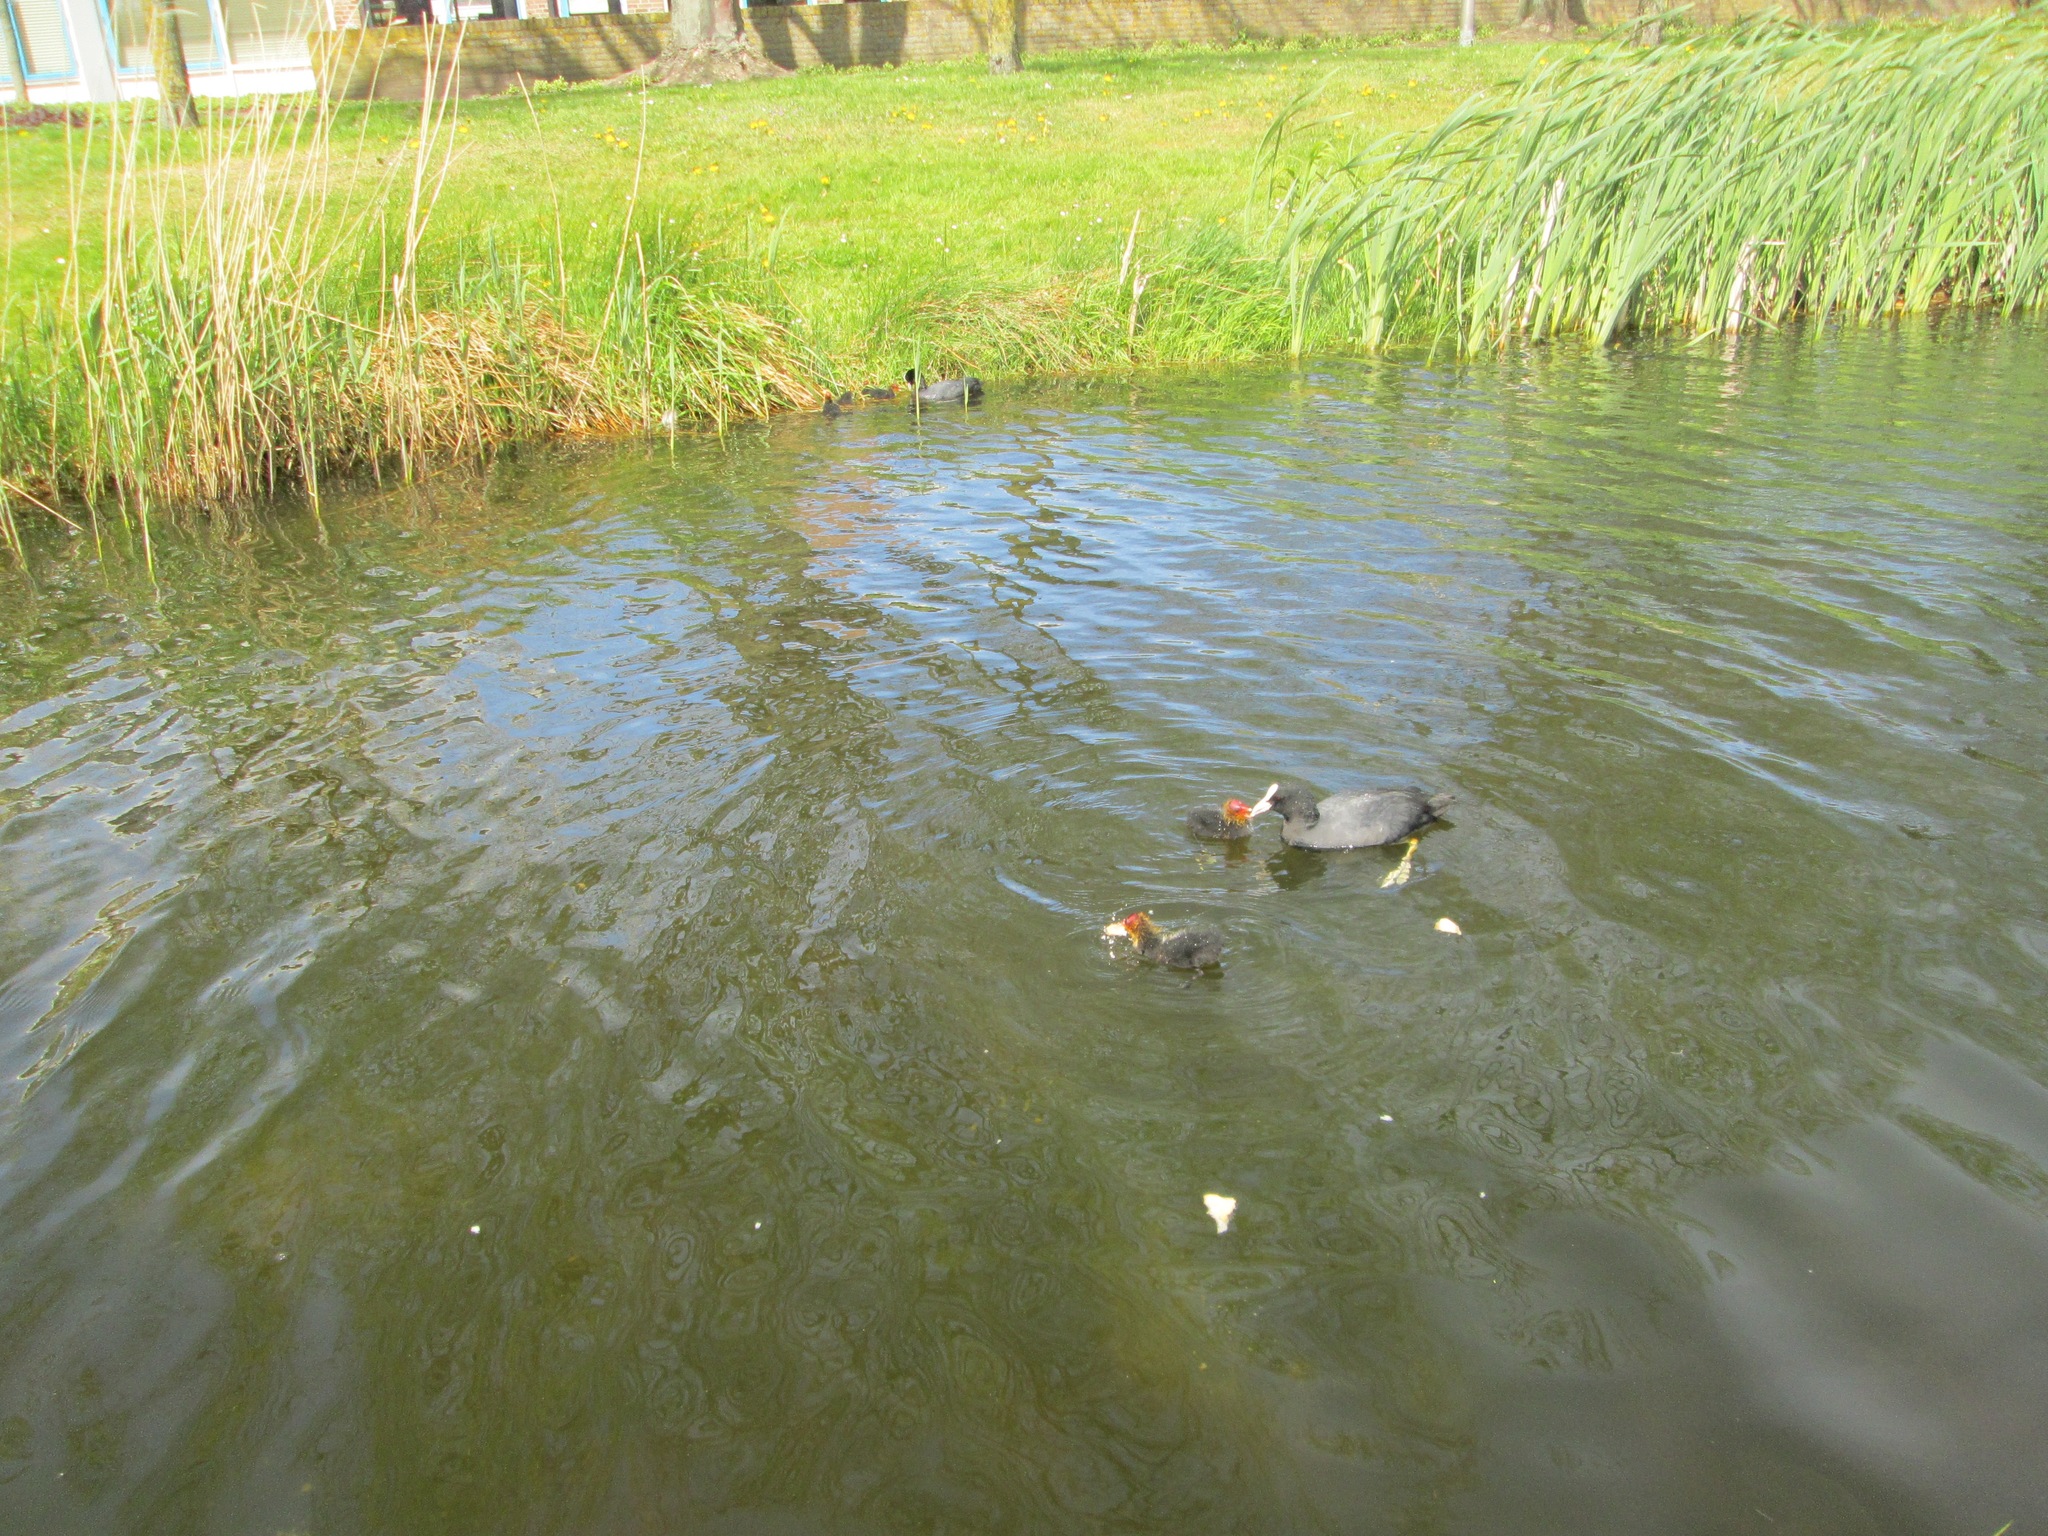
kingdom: Animalia
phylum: Chordata
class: Aves
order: Gruiformes
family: Rallidae
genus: Fulica
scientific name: Fulica atra
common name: Eurasian coot
